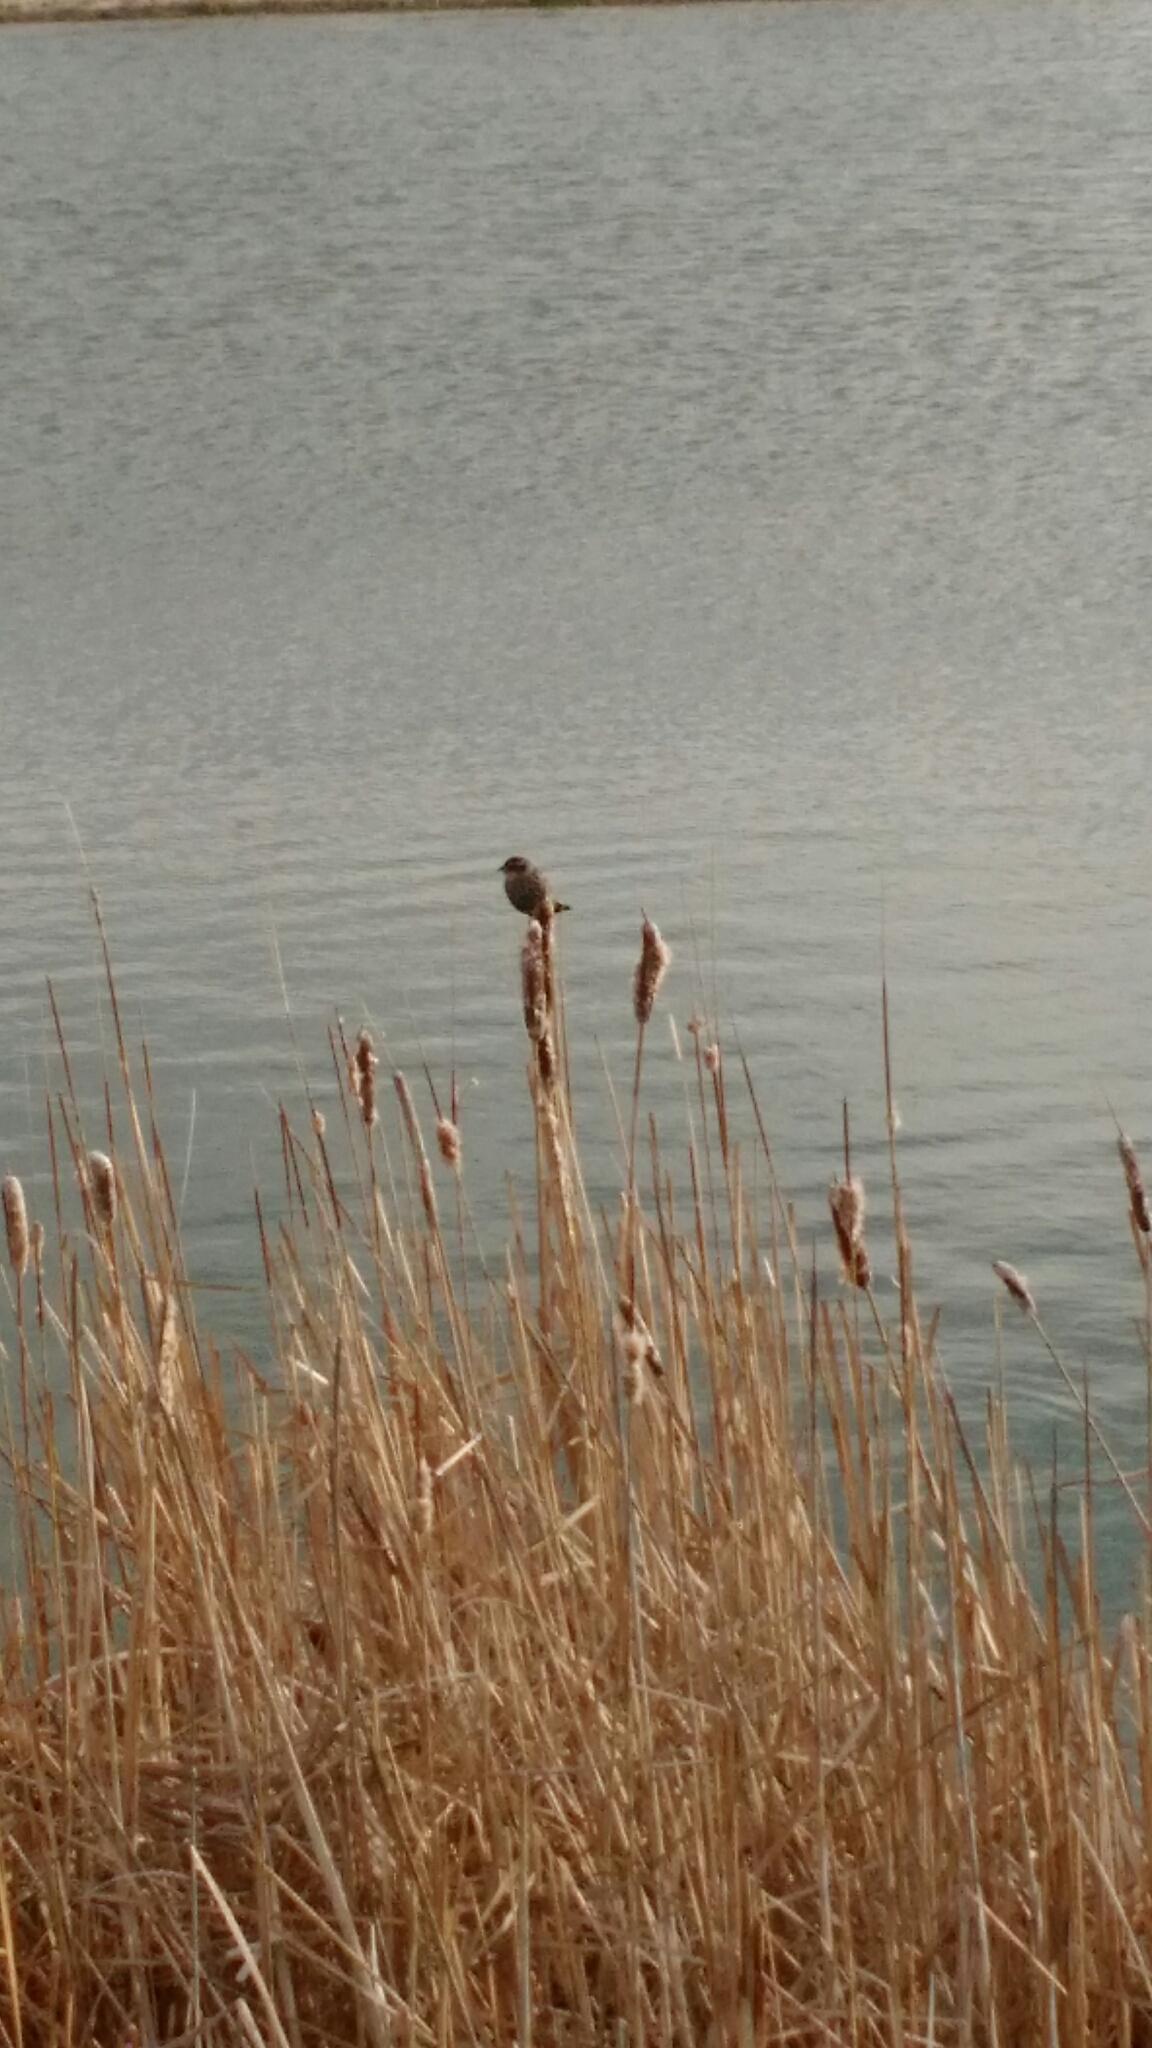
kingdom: Animalia
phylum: Chordata
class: Aves
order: Passeriformes
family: Icteridae
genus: Agelaius
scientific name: Agelaius phoeniceus
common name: Red-winged blackbird
